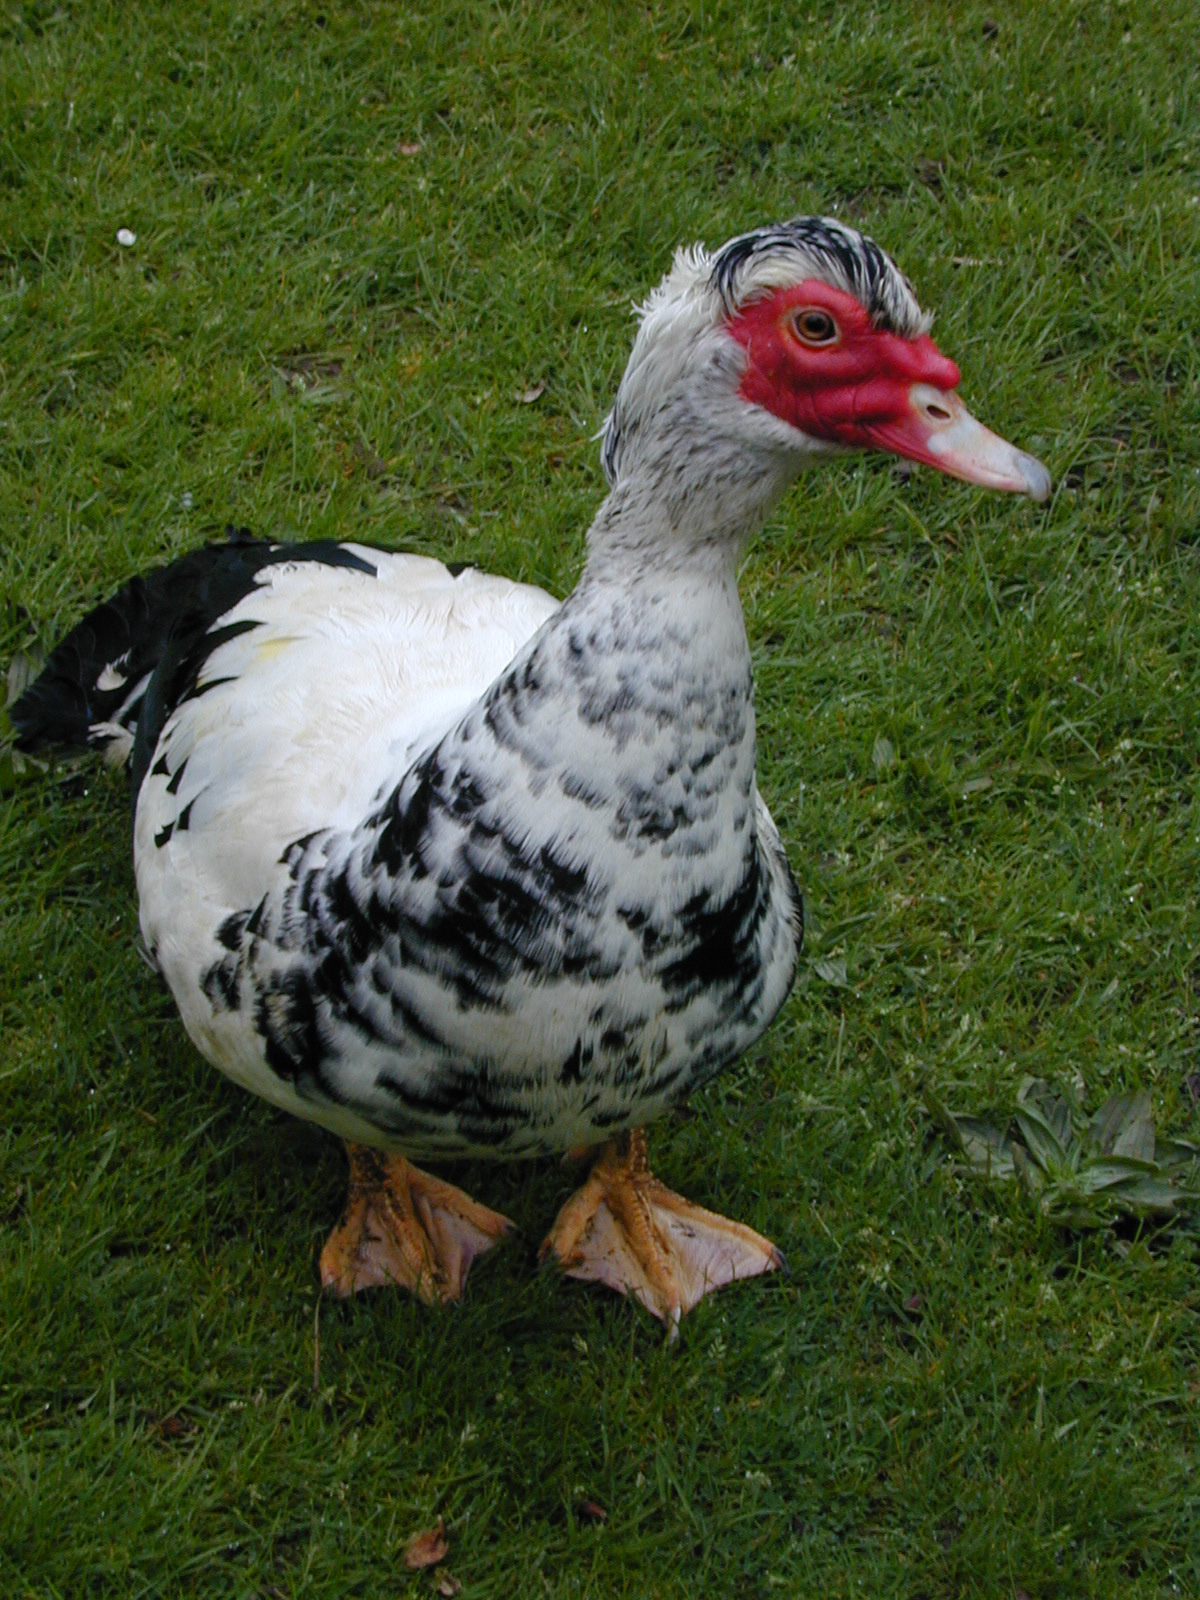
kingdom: Animalia
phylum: Chordata
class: Aves
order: Anseriformes
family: Anatidae
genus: Cairina
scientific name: Cairina moschata
